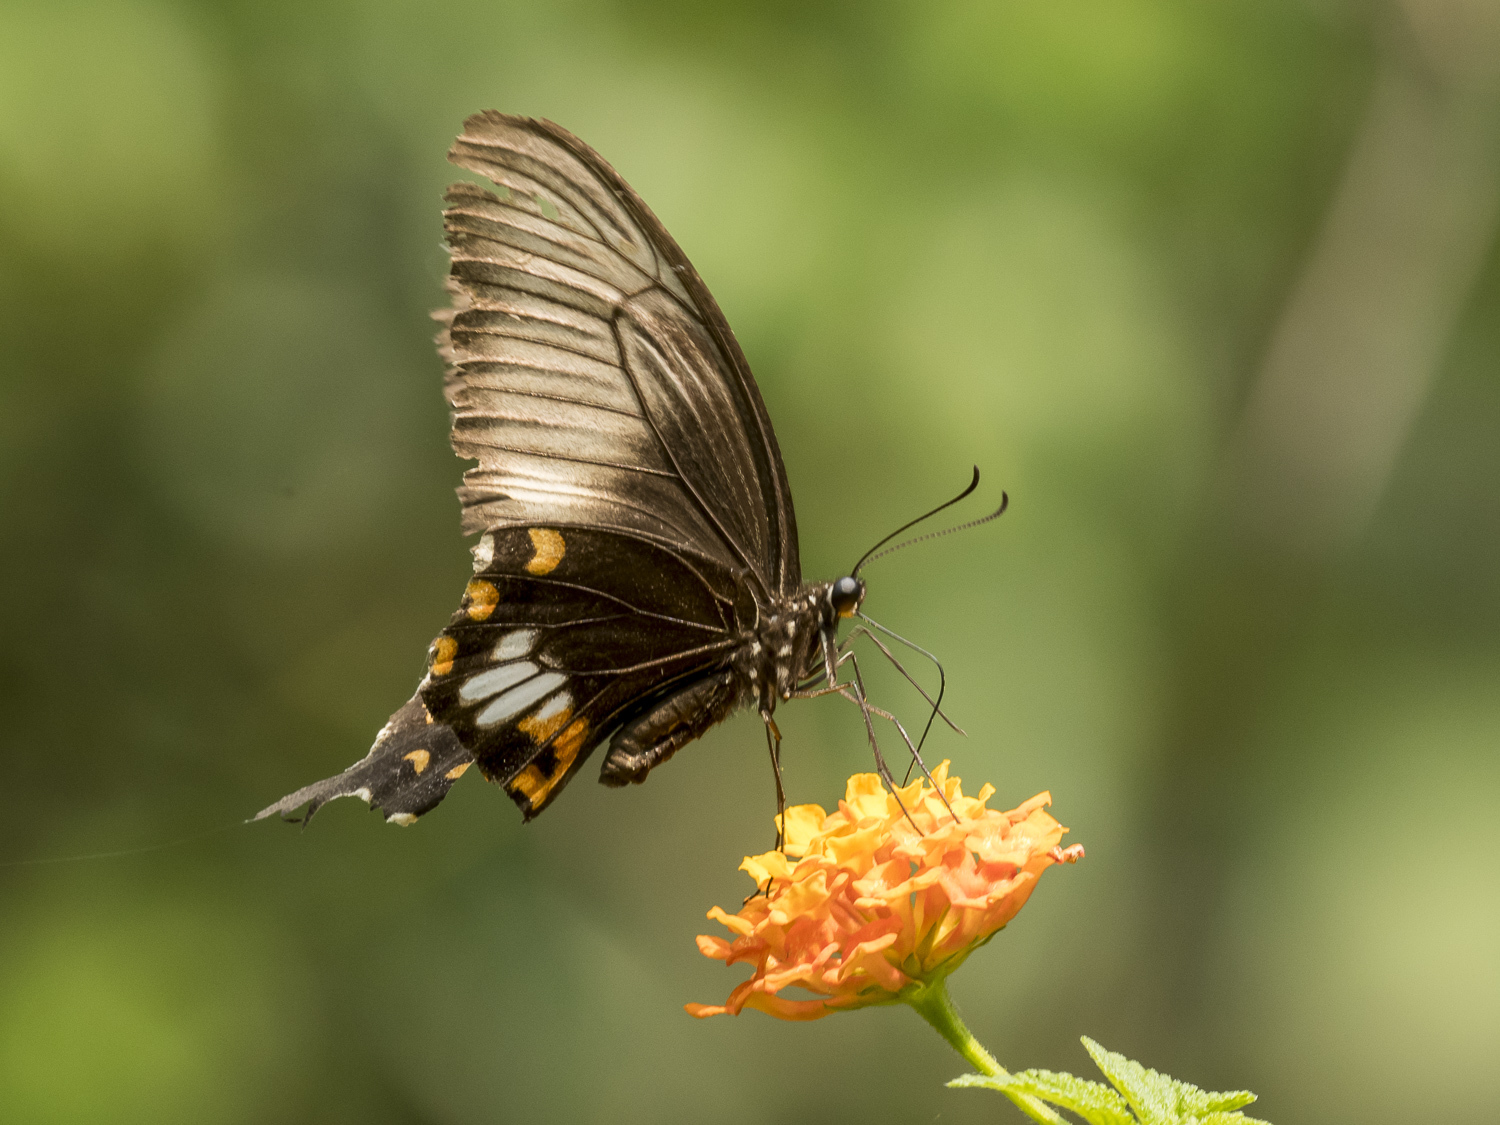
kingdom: Animalia
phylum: Arthropoda
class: Insecta
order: Lepidoptera
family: Papilionidae
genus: Papilio
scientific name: Papilio polytes
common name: Common mormon
